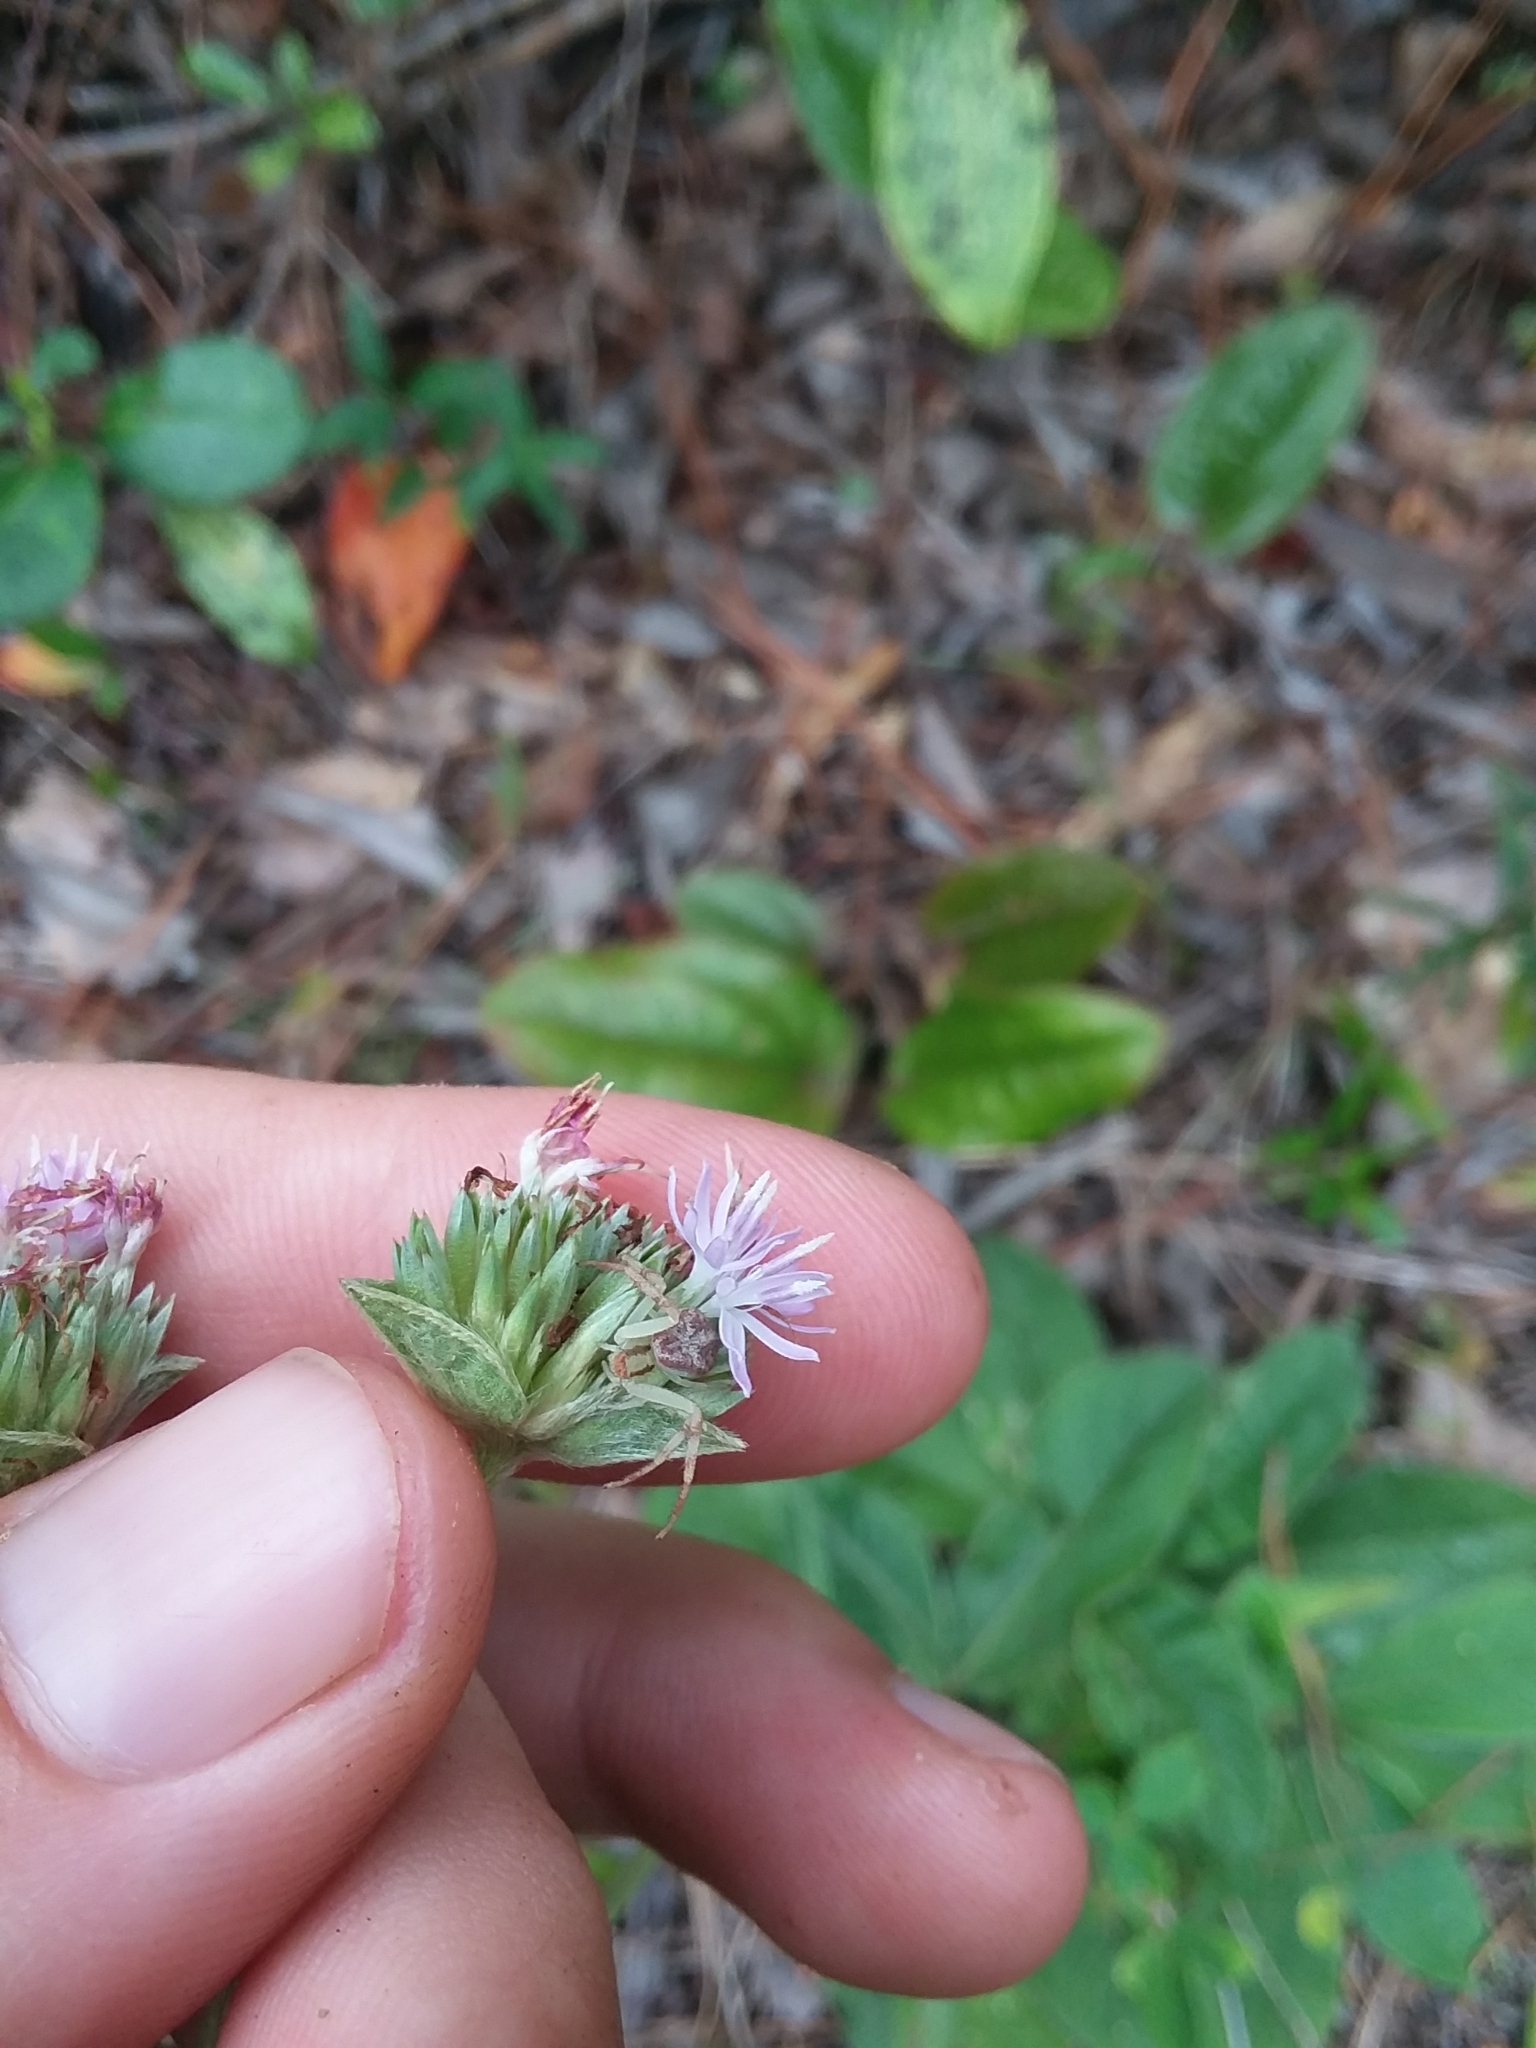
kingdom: Plantae
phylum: Tracheophyta
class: Magnoliopsida
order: Asterales
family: Asteraceae
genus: Elephantopus
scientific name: Elephantopus elatus
